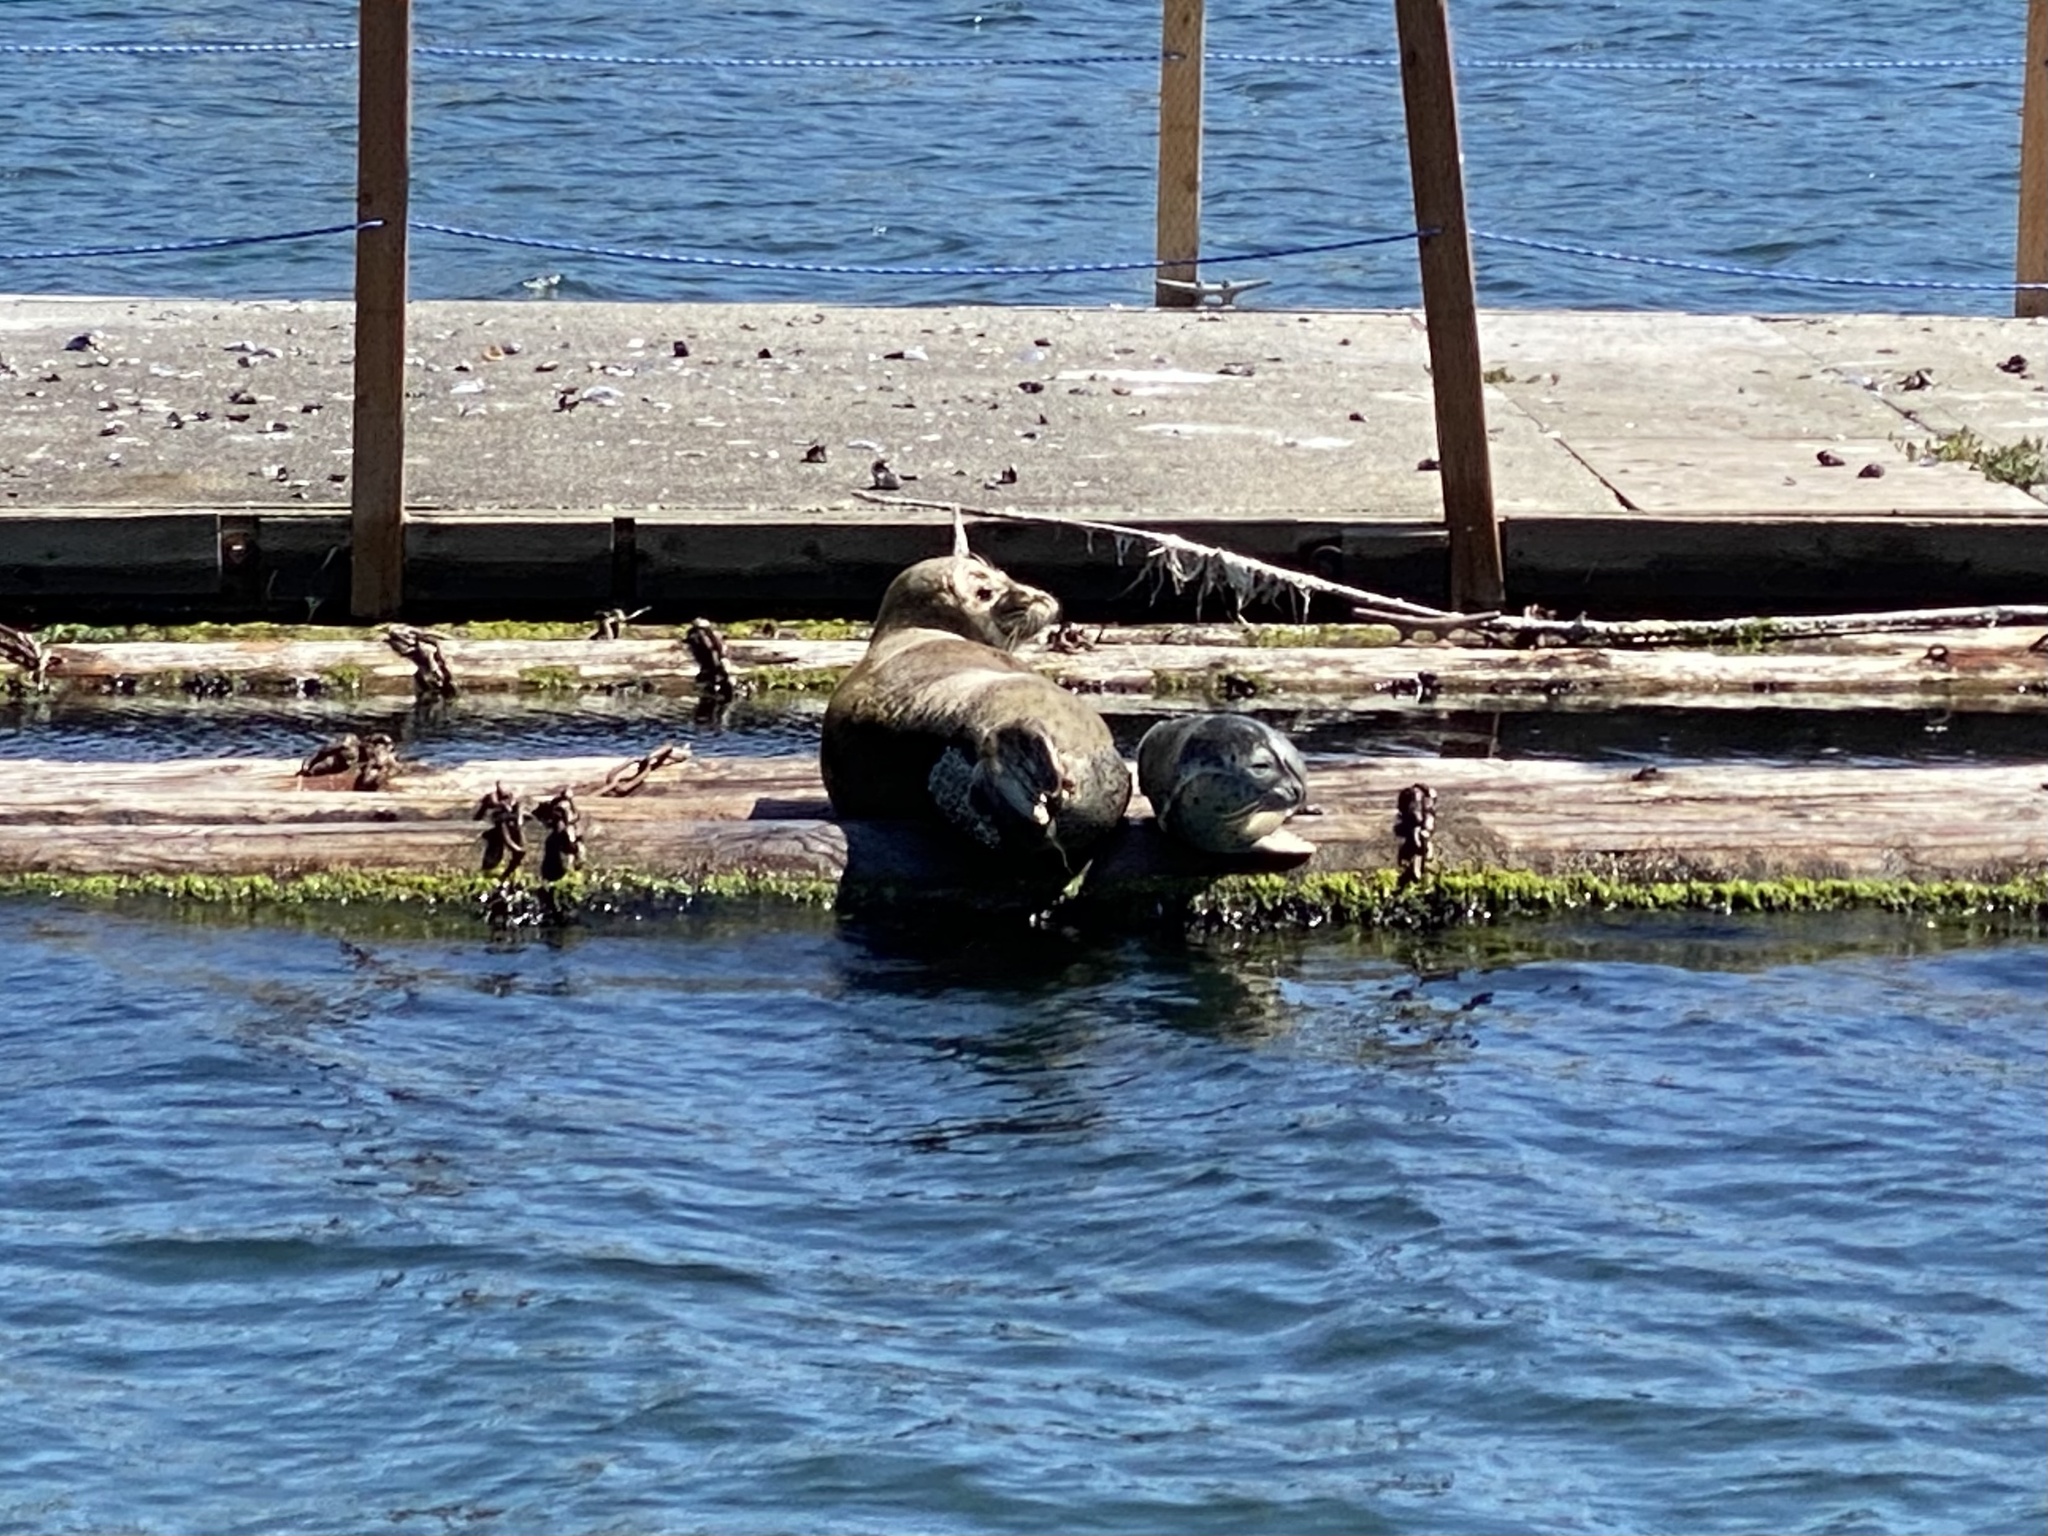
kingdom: Animalia
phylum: Chordata
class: Mammalia
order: Carnivora
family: Phocidae
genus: Phoca
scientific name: Phoca vitulina
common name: Harbor seal
